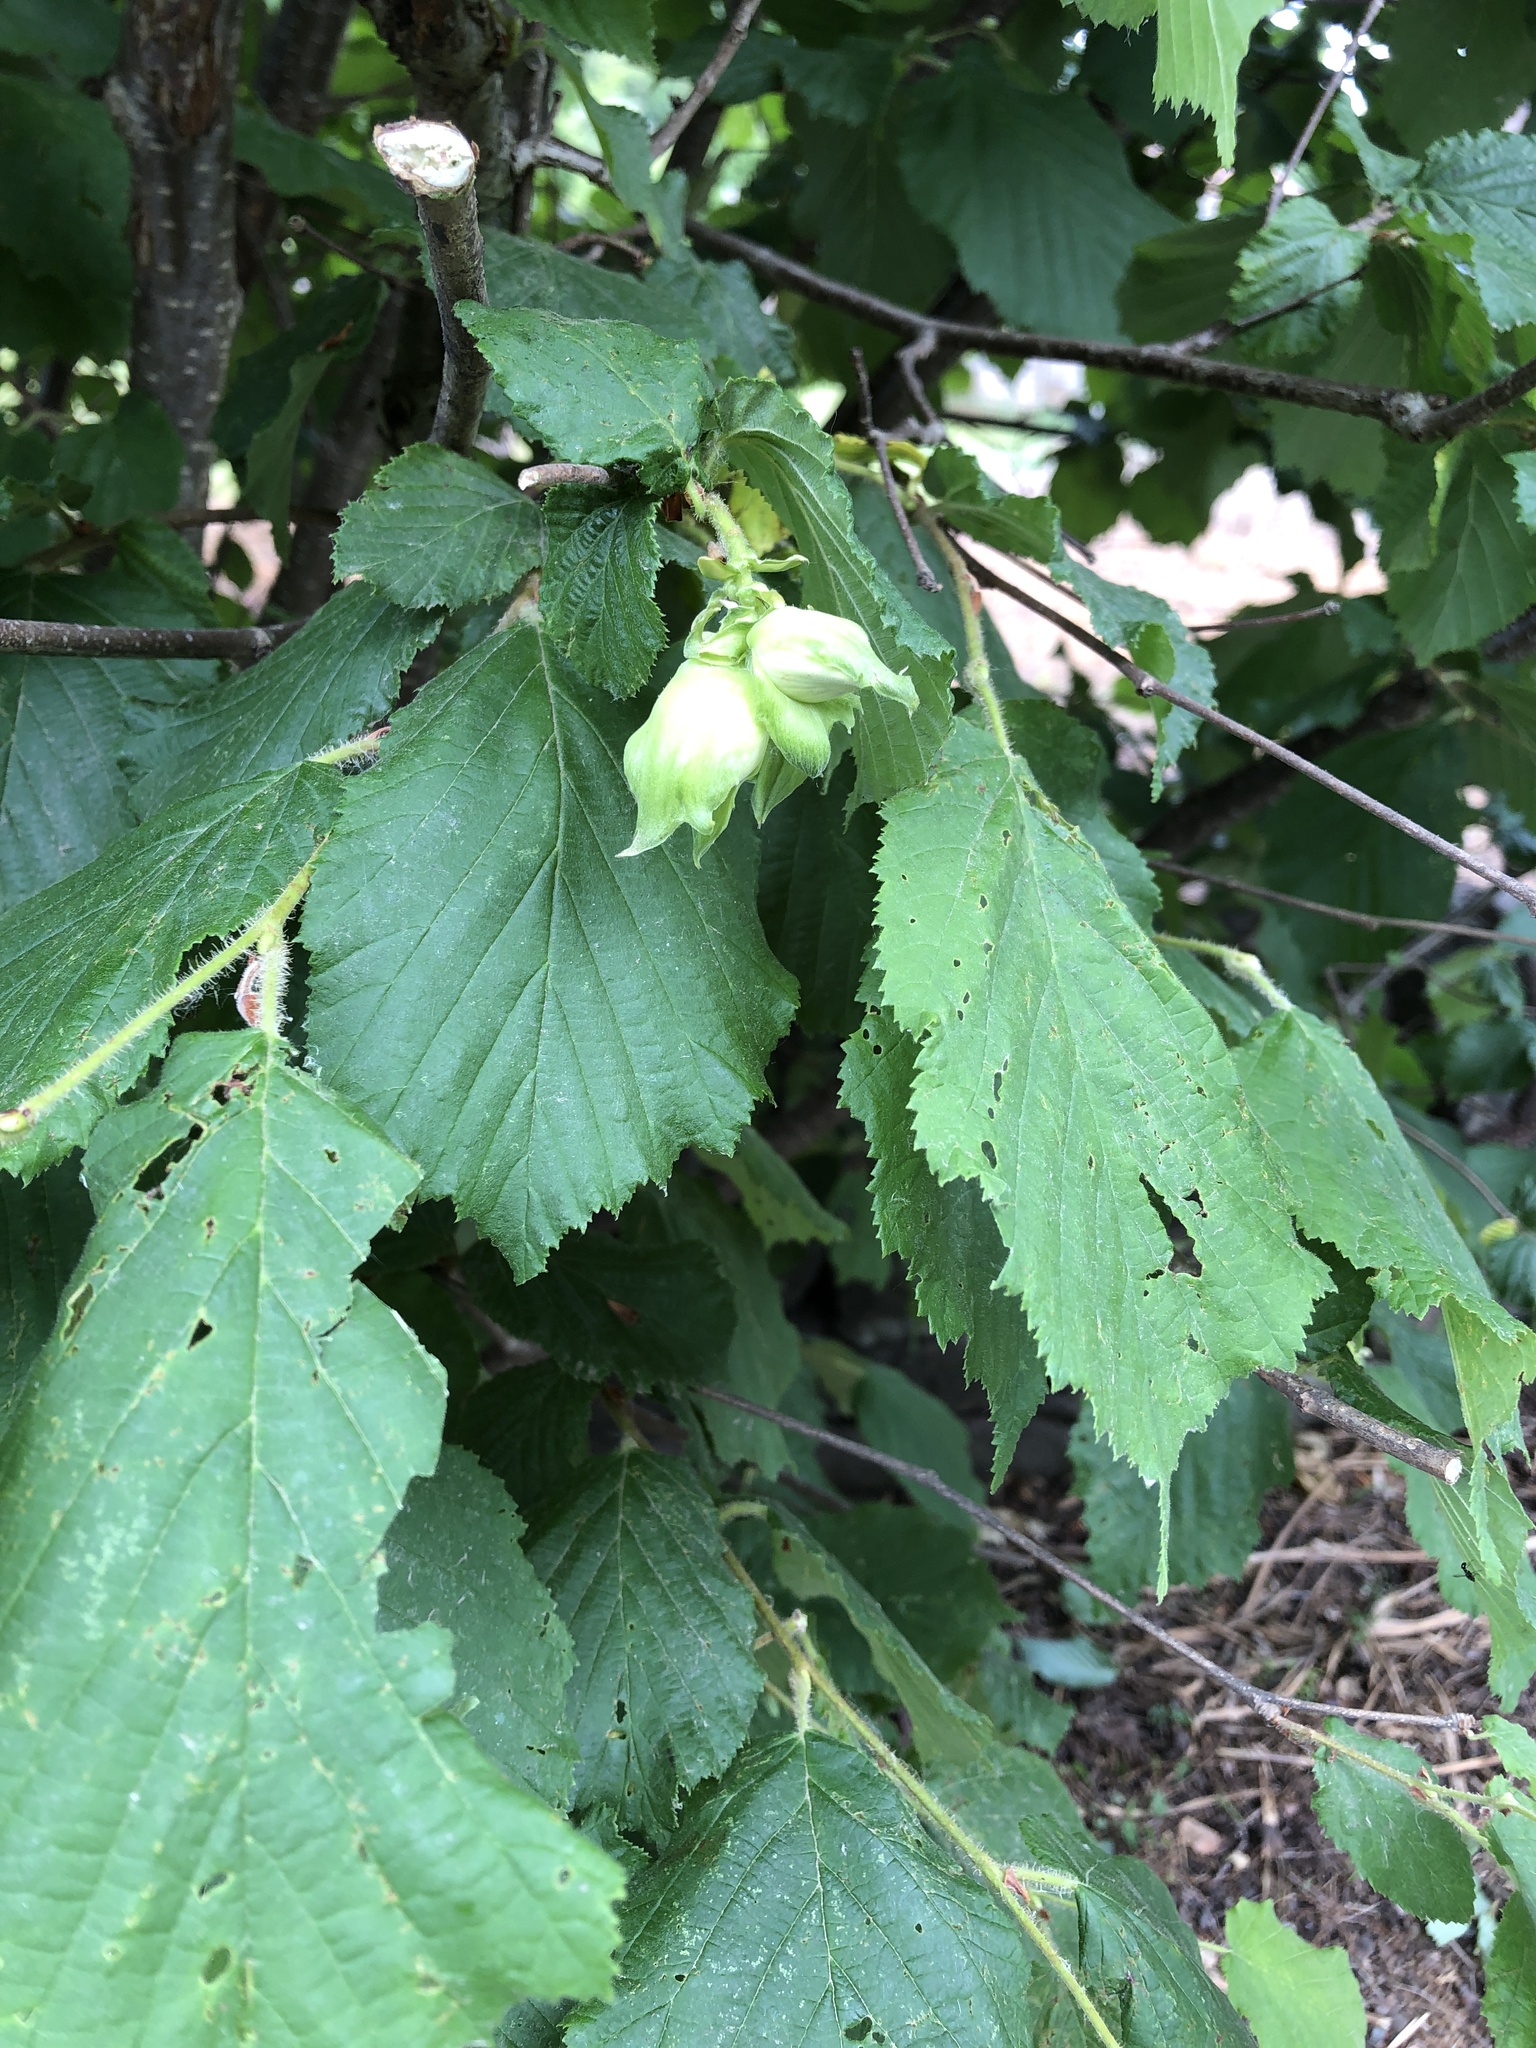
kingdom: Plantae
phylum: Tracheophyta
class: Magnoliopsida
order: Fagales
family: Betulaceae
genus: Corylus
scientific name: Corylus avellana
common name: European hazel
